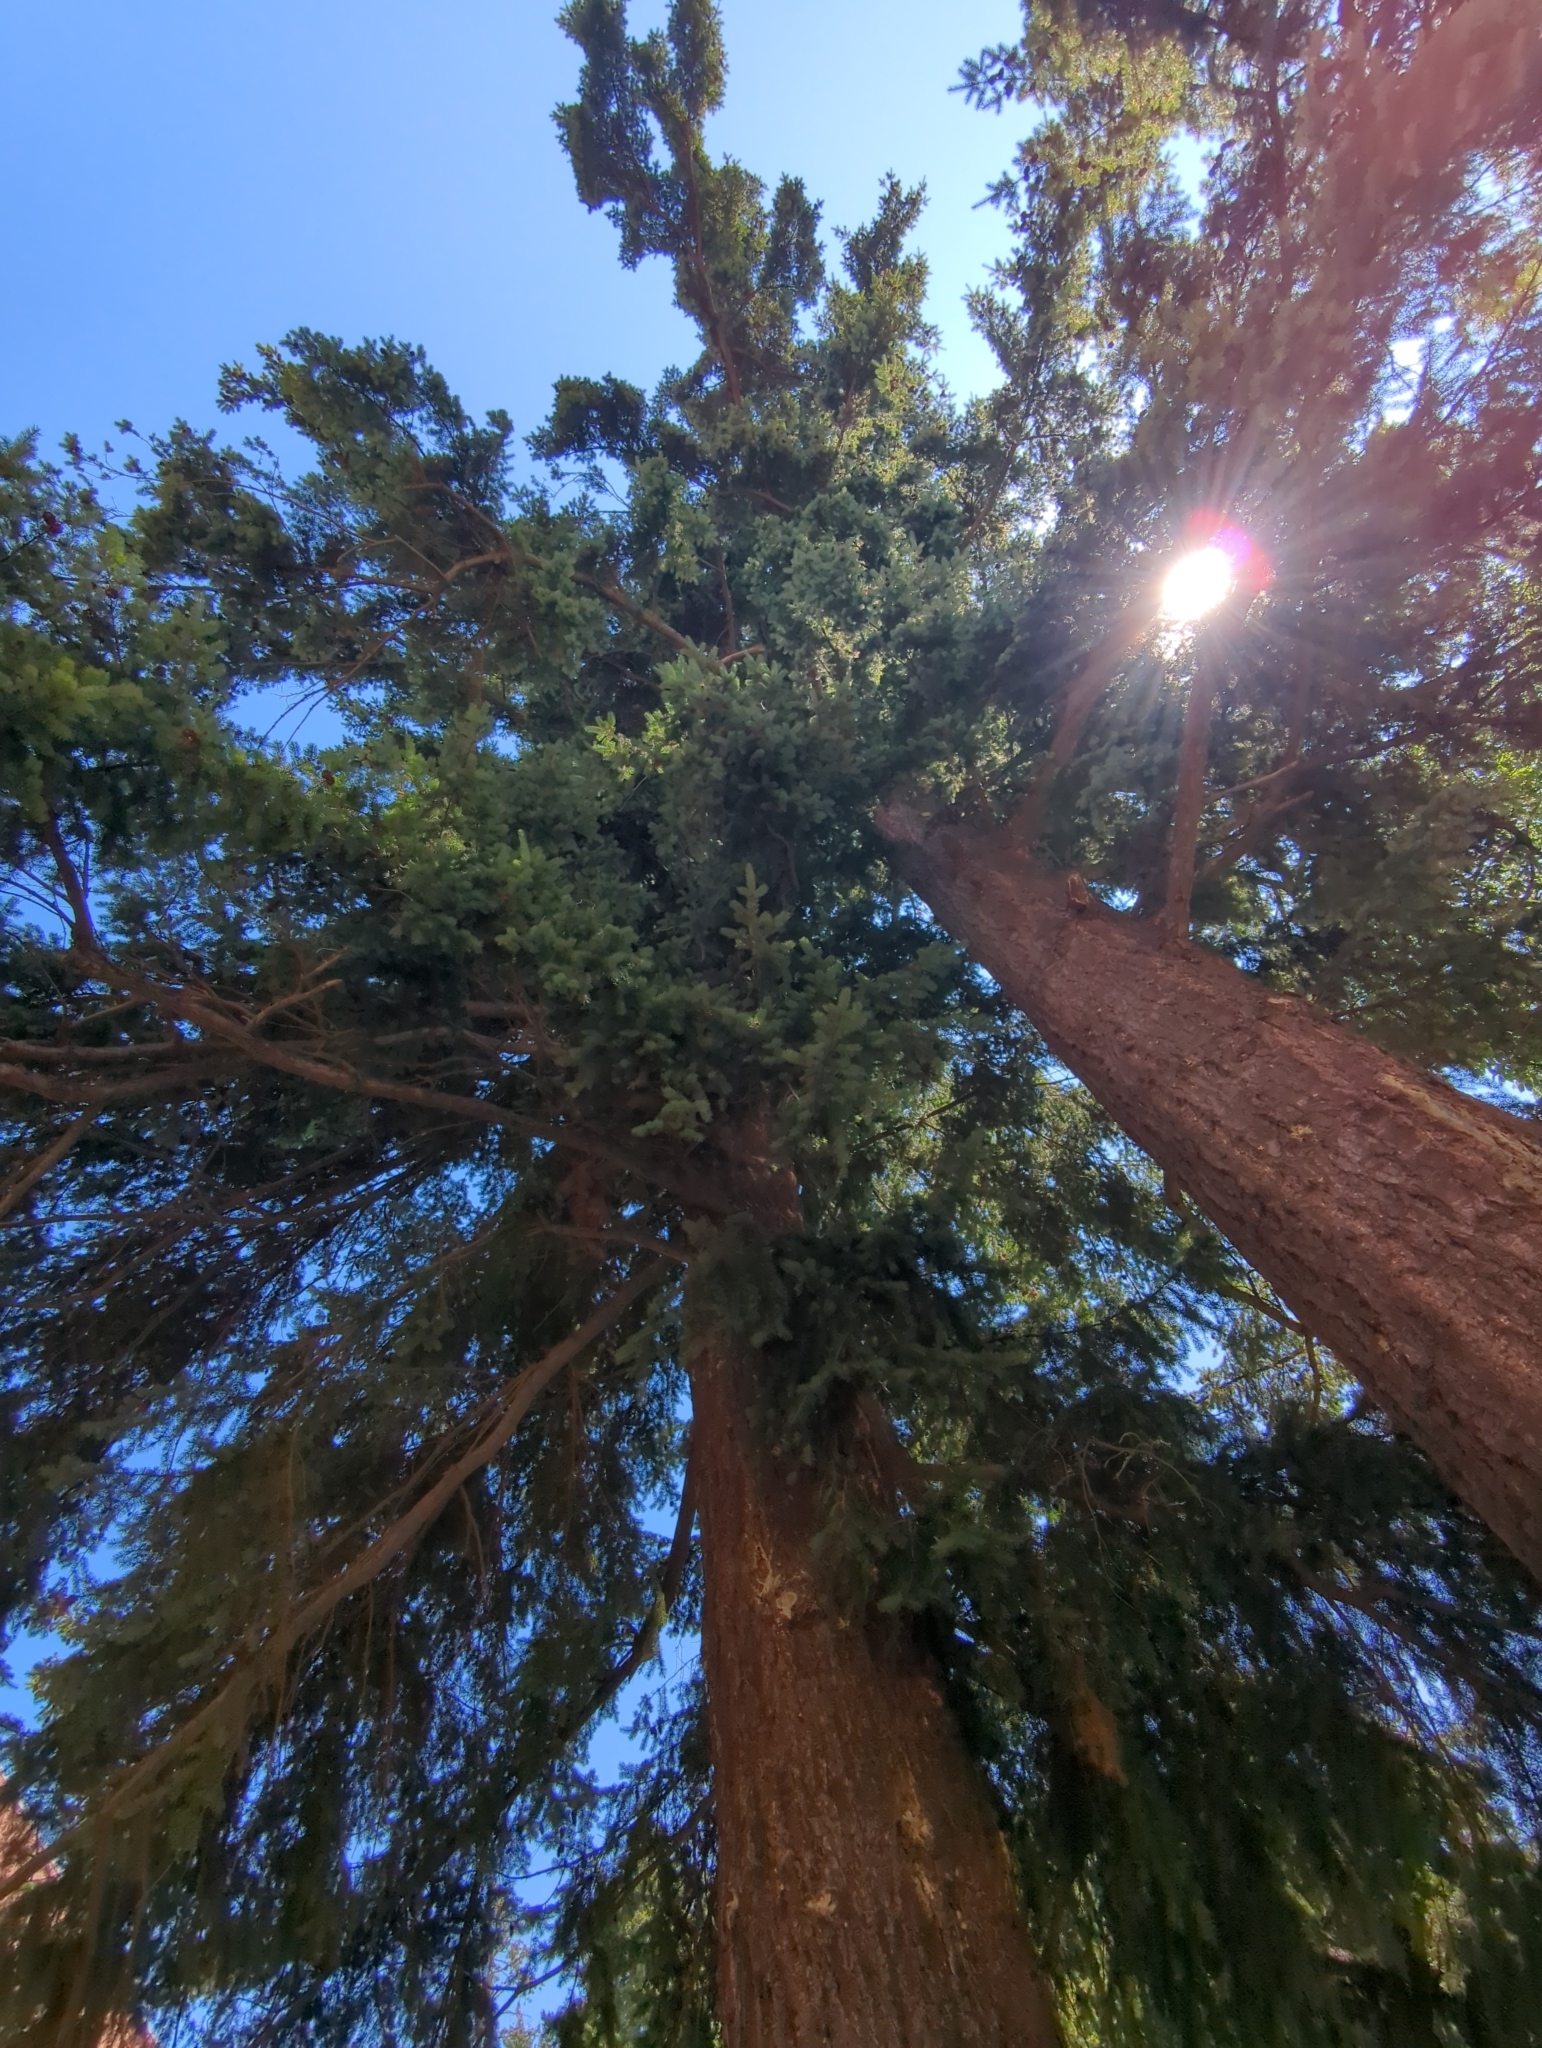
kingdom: Plantae
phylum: Tracheophyta
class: Pinopsida
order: Pinales
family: Pinaceae
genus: Pseudotsuga
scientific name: Pseudotsuga menziesii
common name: Douglas fir
